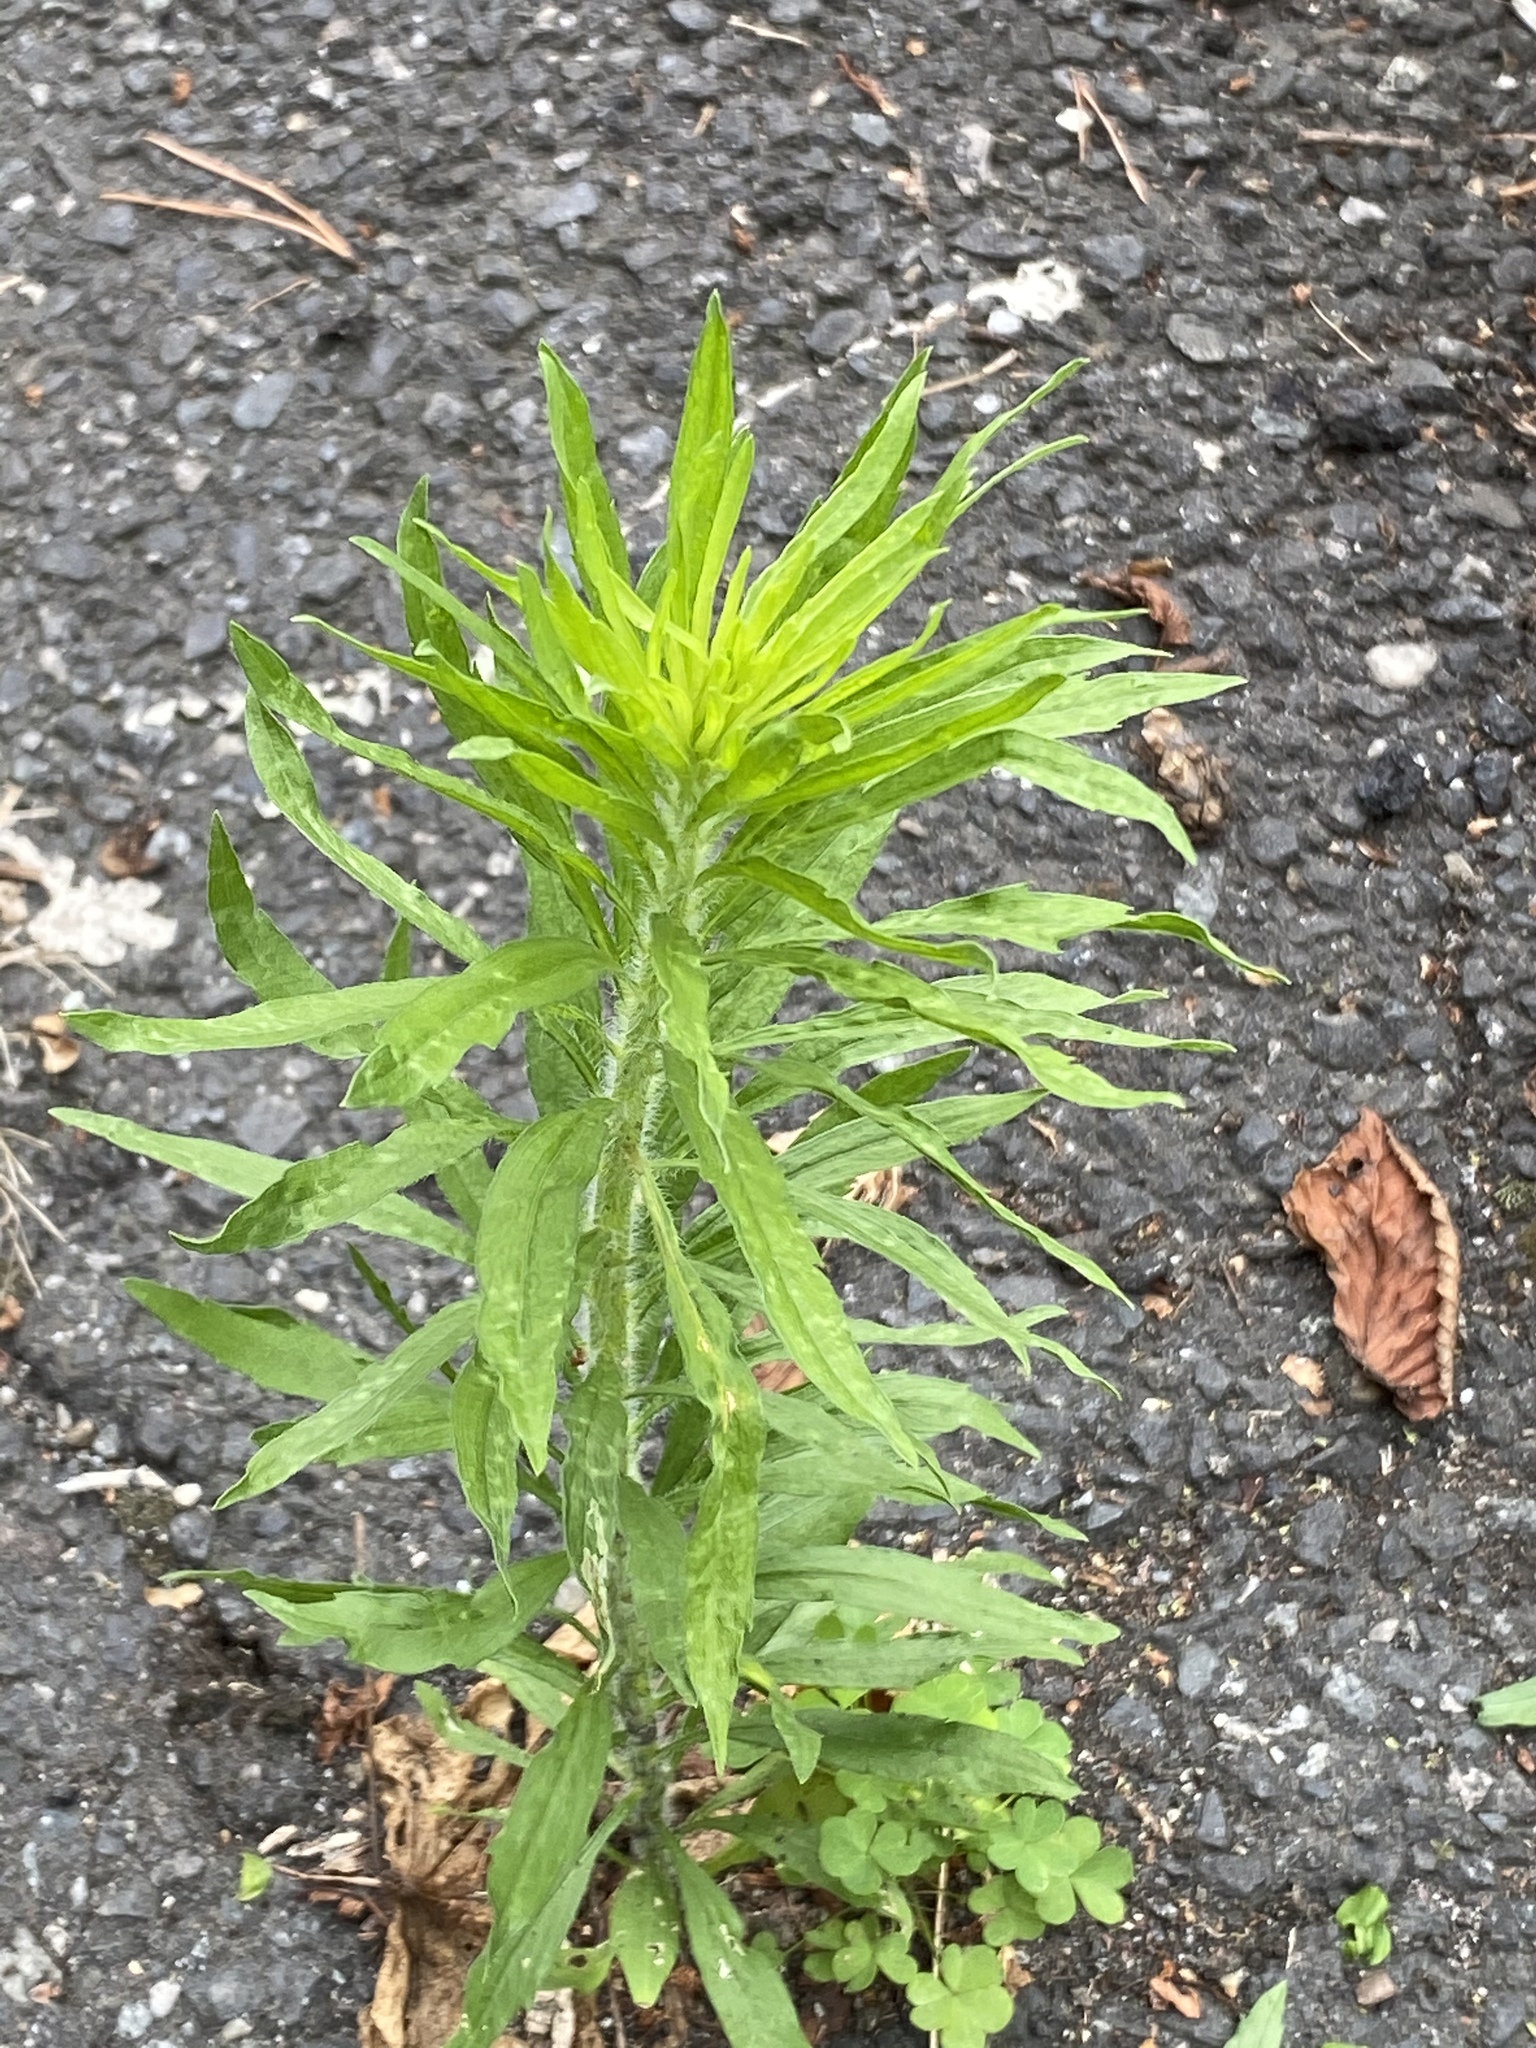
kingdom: Plantae
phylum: Tracheophyta
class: Magnoliopsida
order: Asterales
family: Asteraceae
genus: Erigeron
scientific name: Erigeron canadensis
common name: Canadian fleabane
